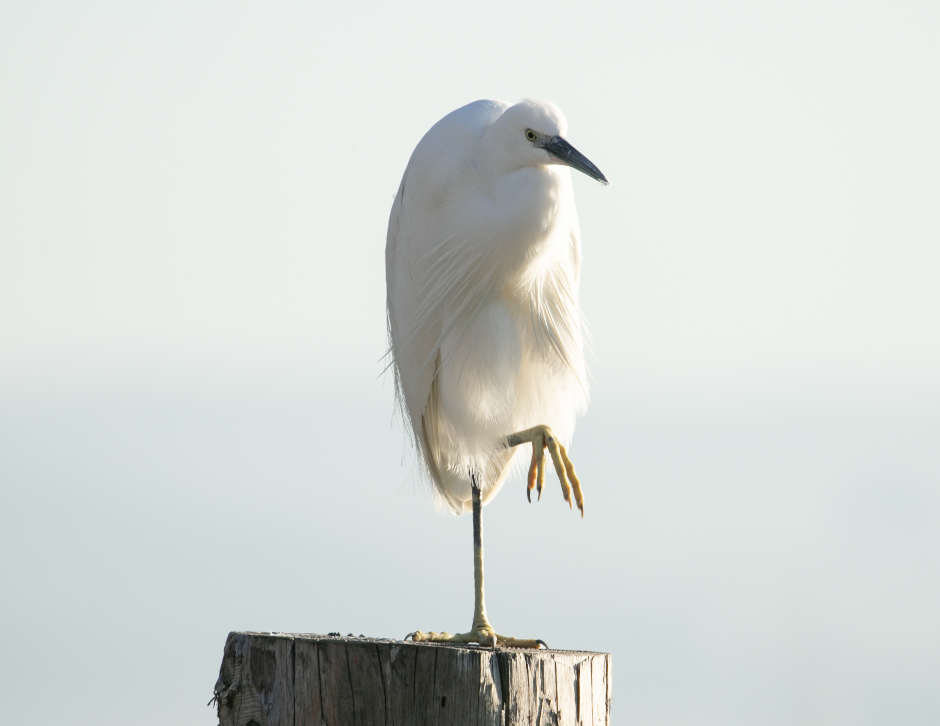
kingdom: Animalia
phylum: Chordata
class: Aves
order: Pelecaniformes
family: Ardeidae
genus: Egretta
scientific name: Egretta garzetta
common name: Little egret
